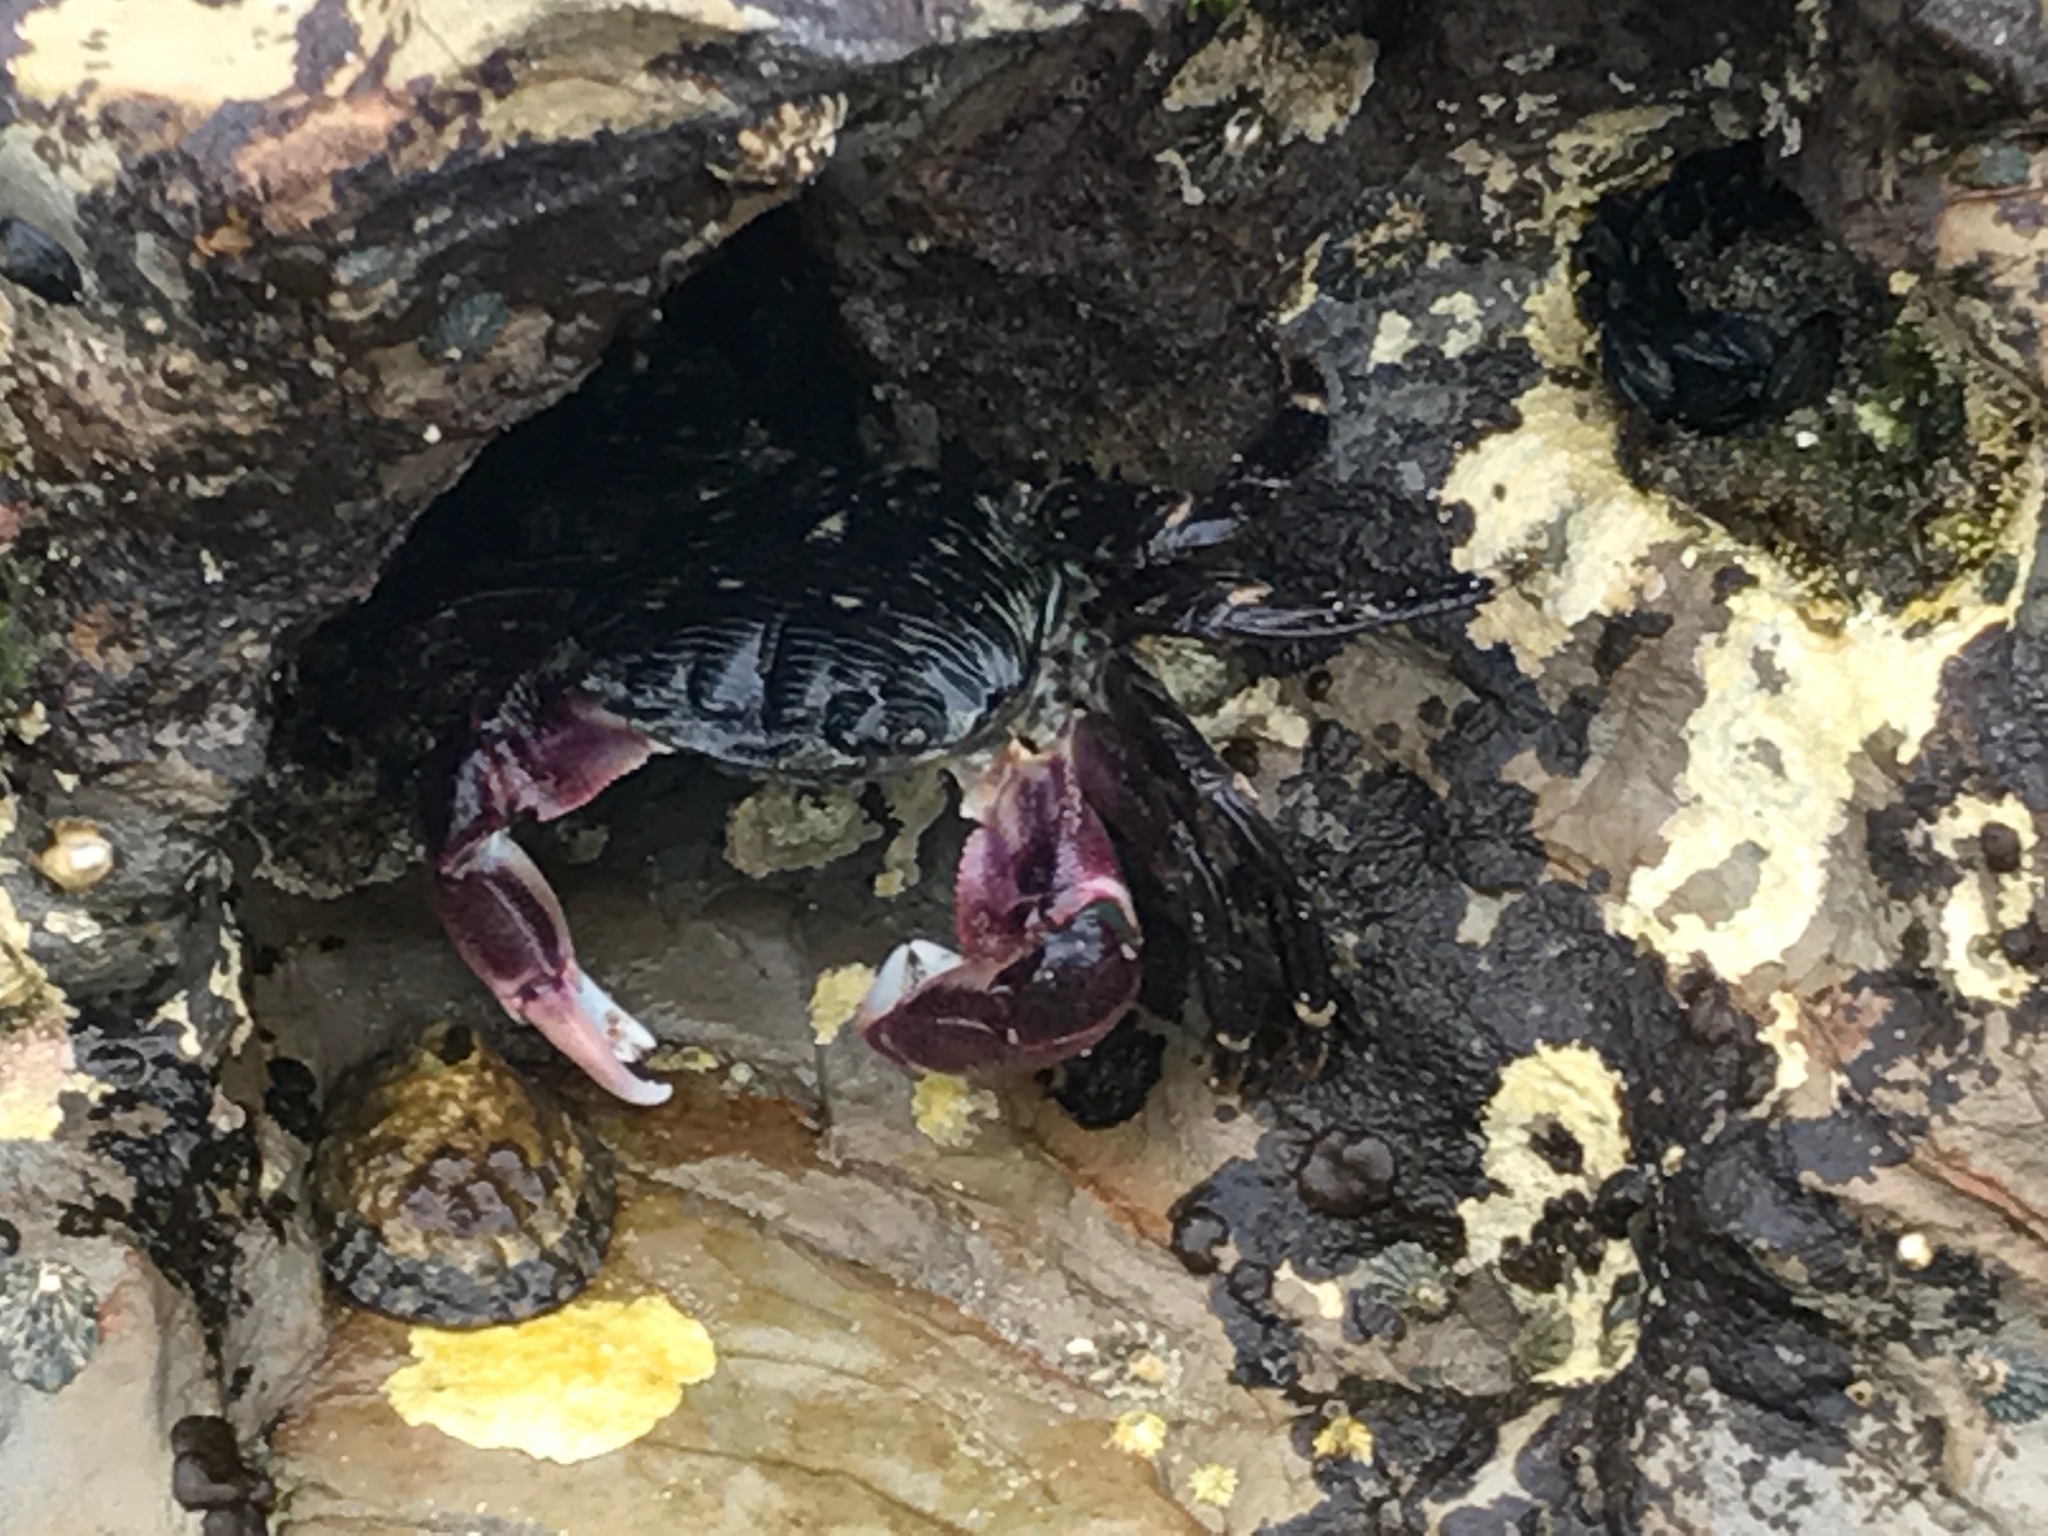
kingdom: Animalia
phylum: Arthropoda
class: Malacostraca
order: Decapoda
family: Grapsidae
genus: Pachygrapsus
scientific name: Pachygrapsus crassipes
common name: Striped shore crab
